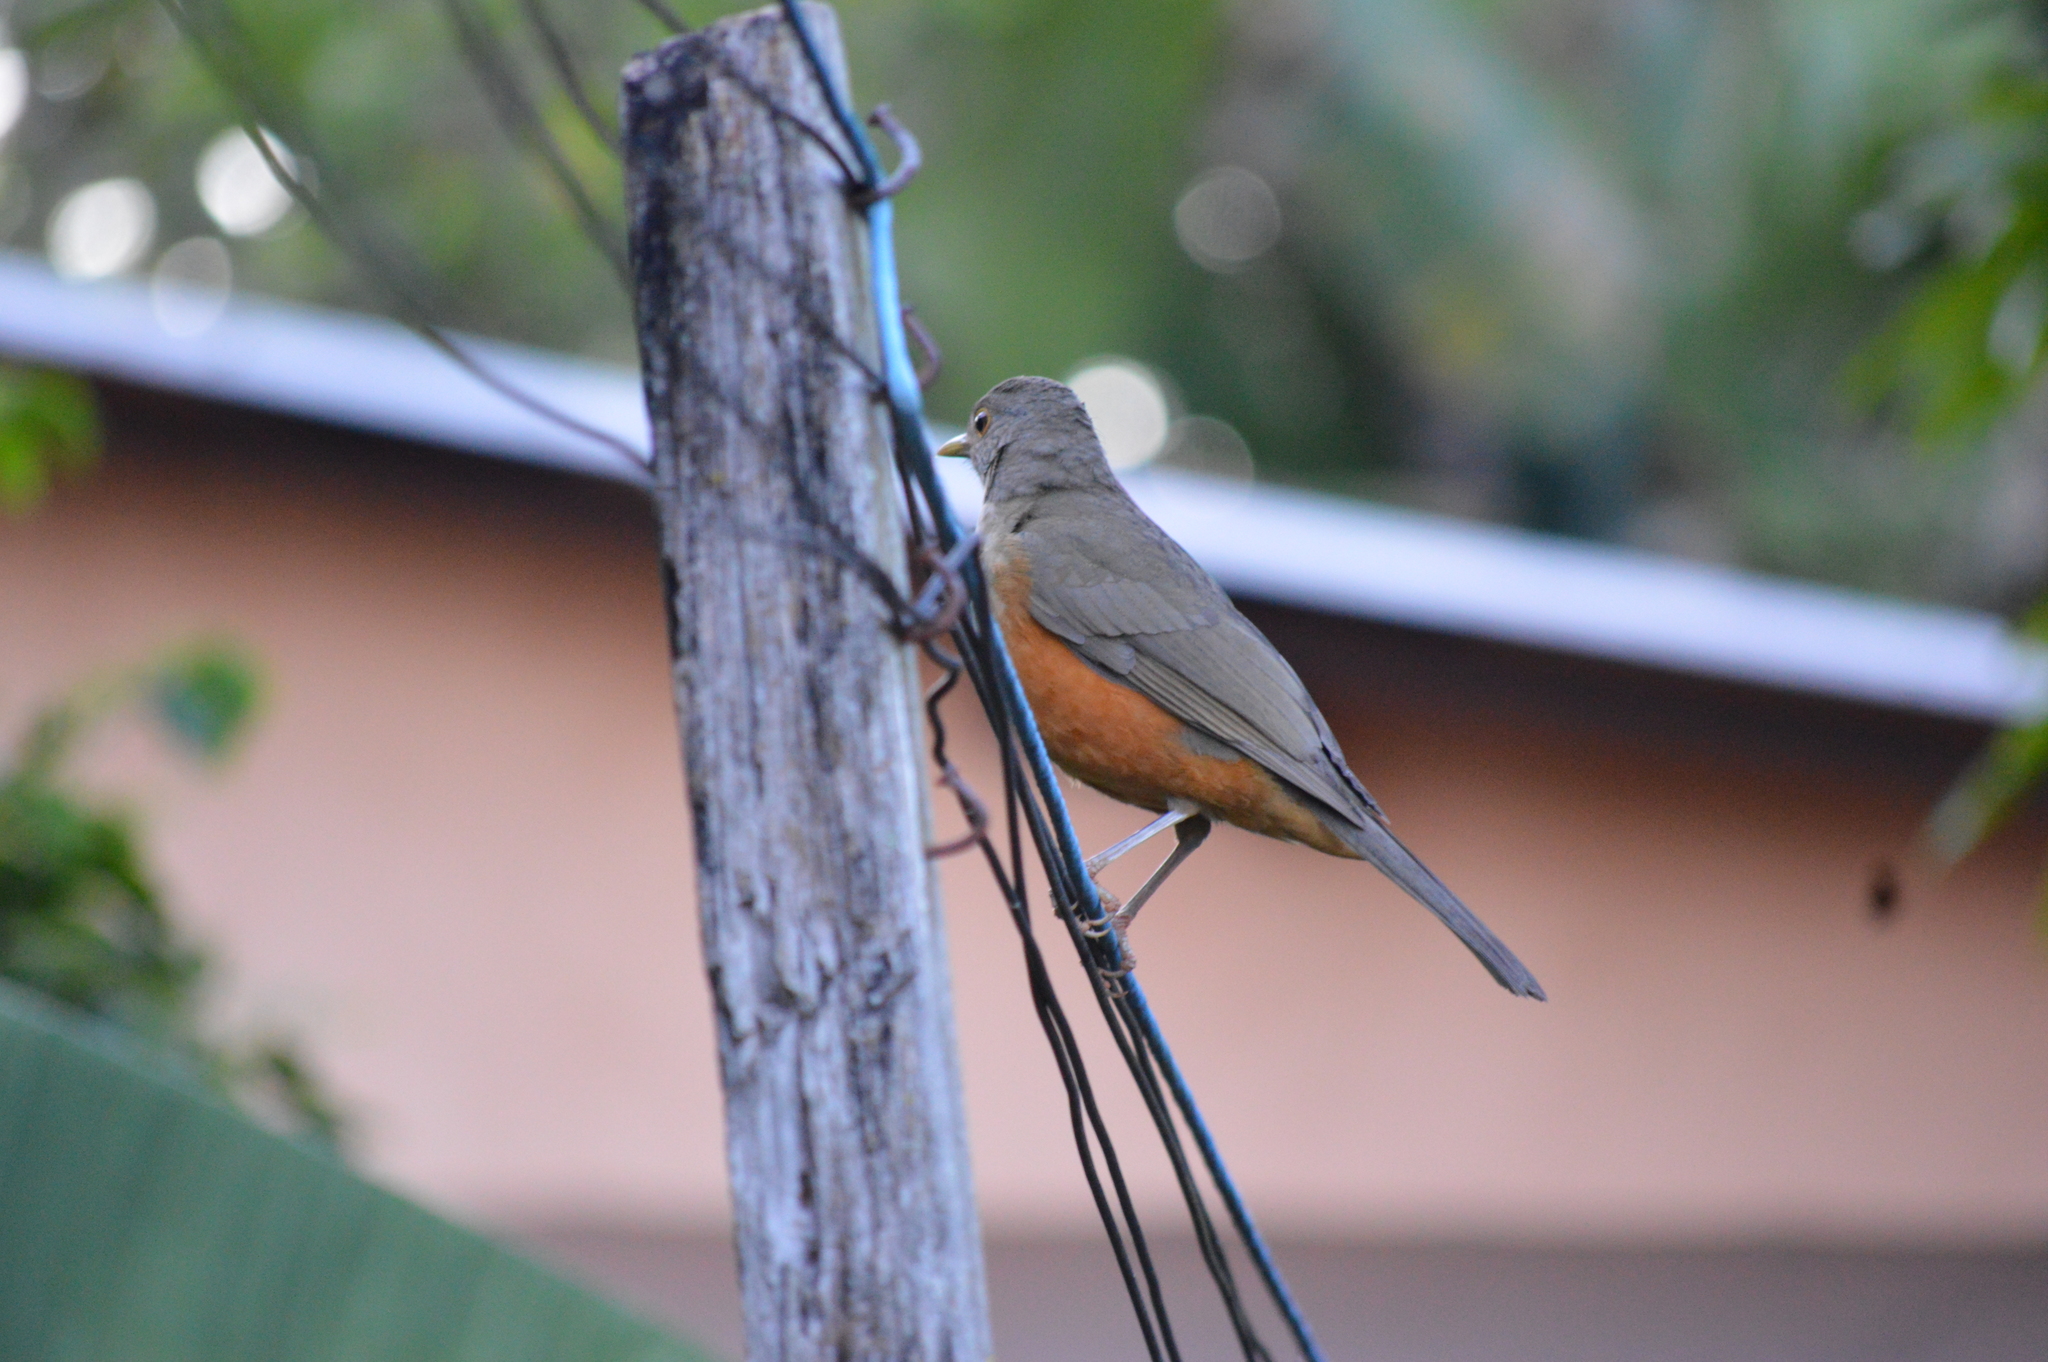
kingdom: Animalia
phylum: Chordata
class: Aves
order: Passeriformes
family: Turdidae
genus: Turdus
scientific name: Turdus rufiventris
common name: Rufous-bellied thrush
